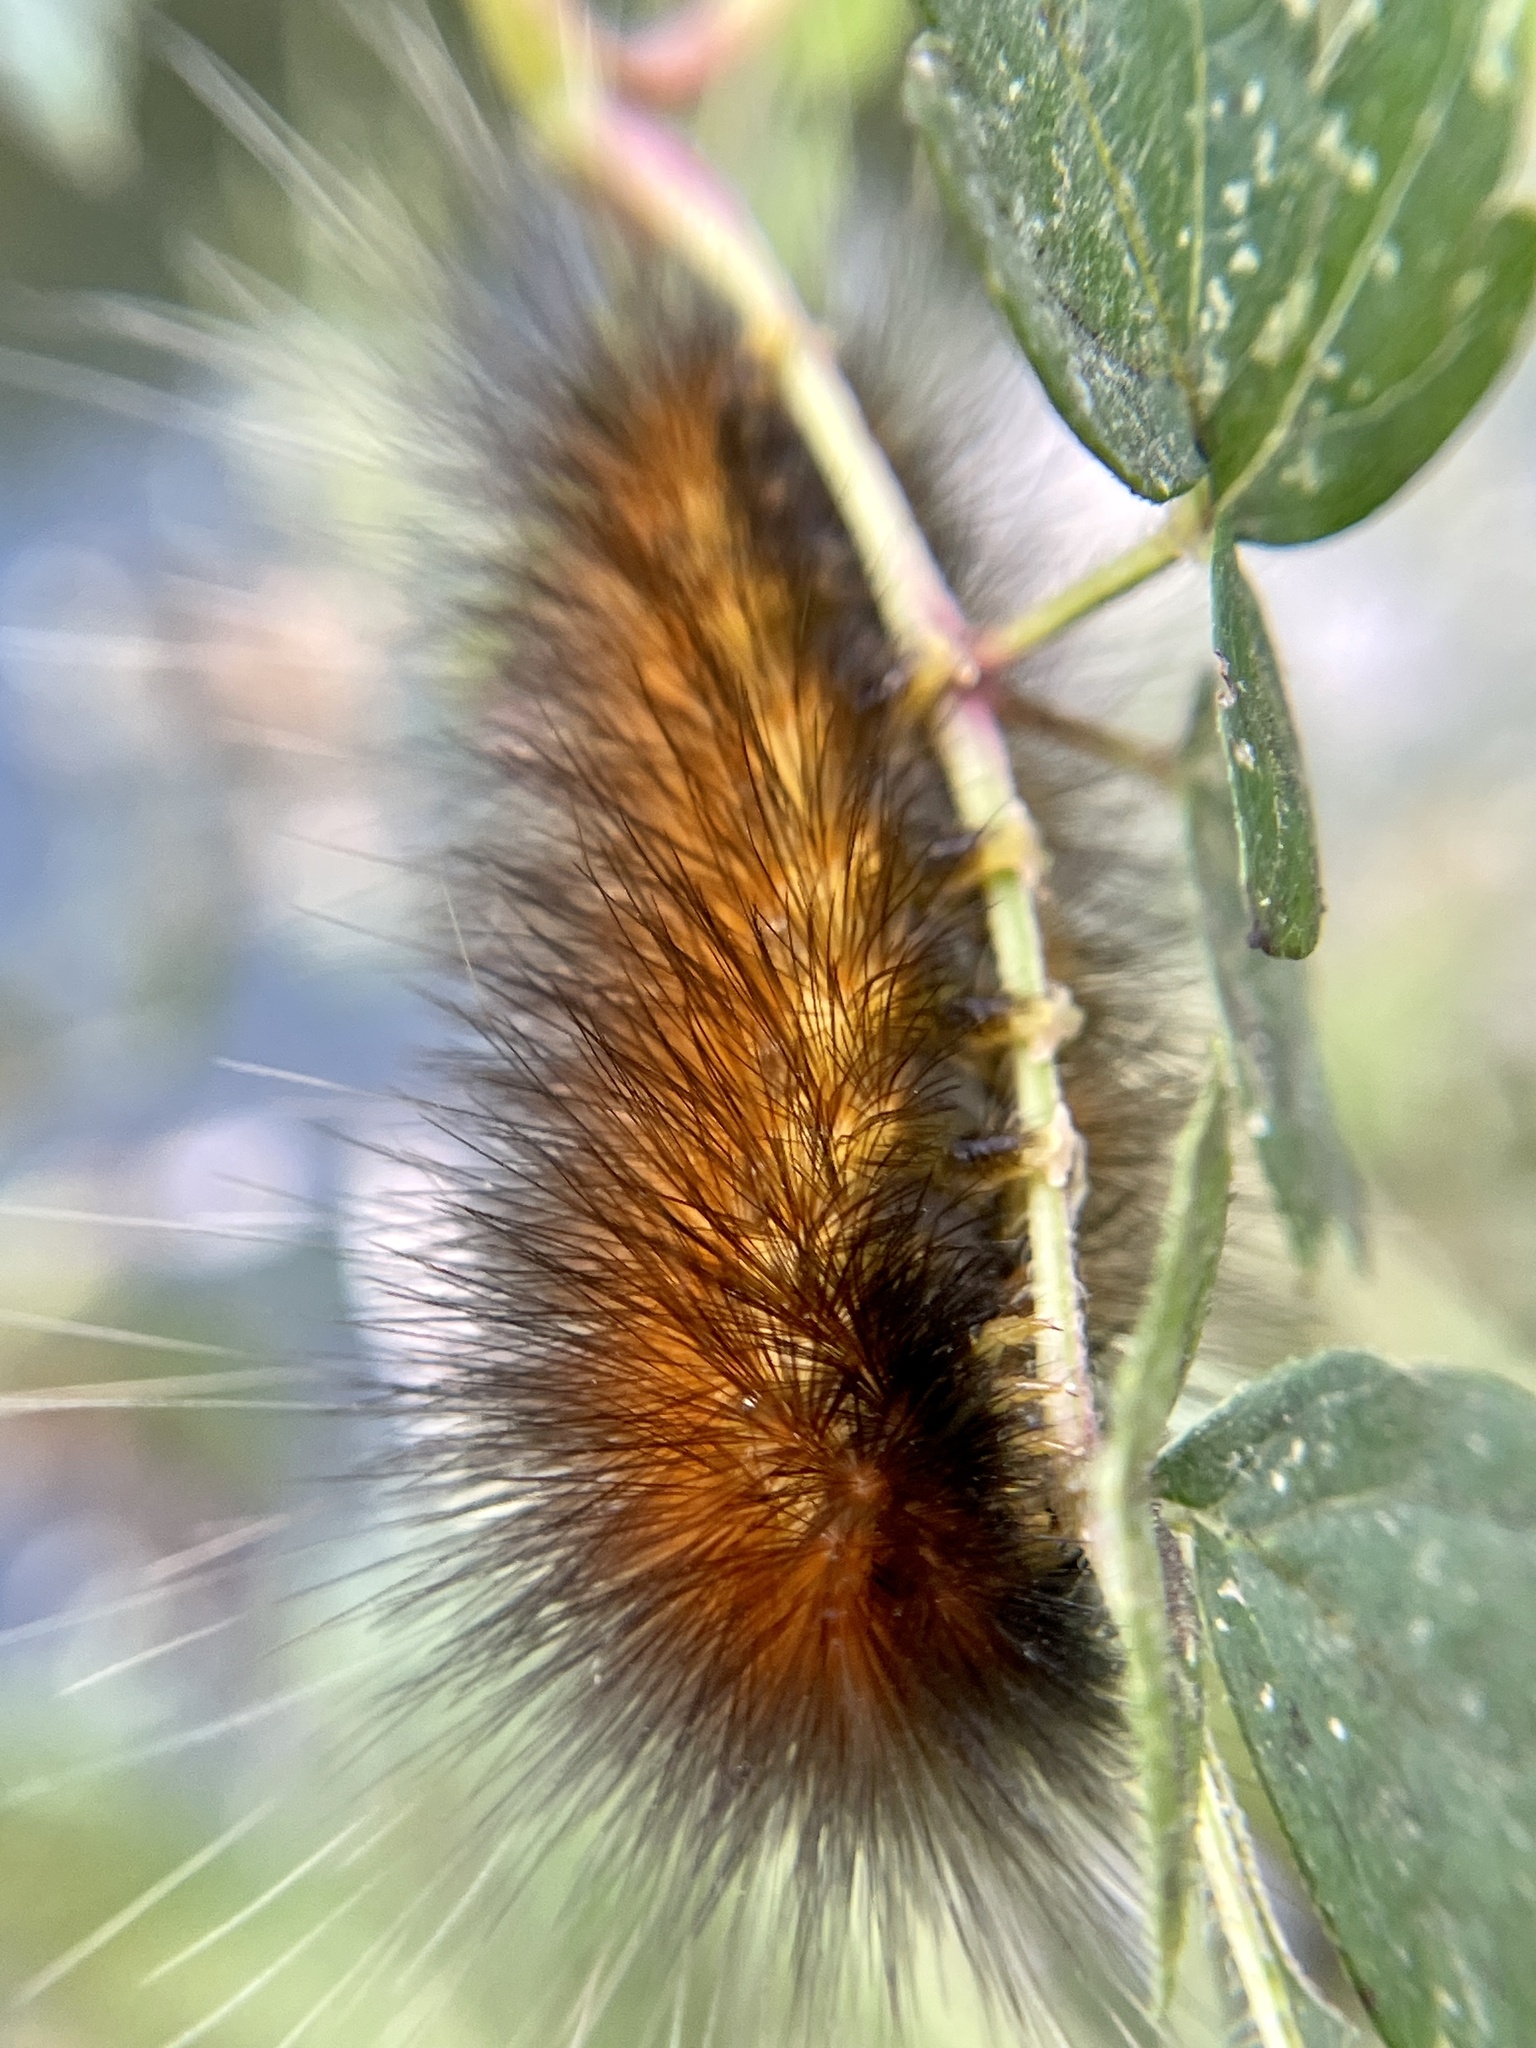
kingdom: Animalia
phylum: Arthropoda
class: Insecta
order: Lepidoptera
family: Erebidae
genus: Estigmene
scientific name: Estigmene acrea
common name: Salt marsh moth
